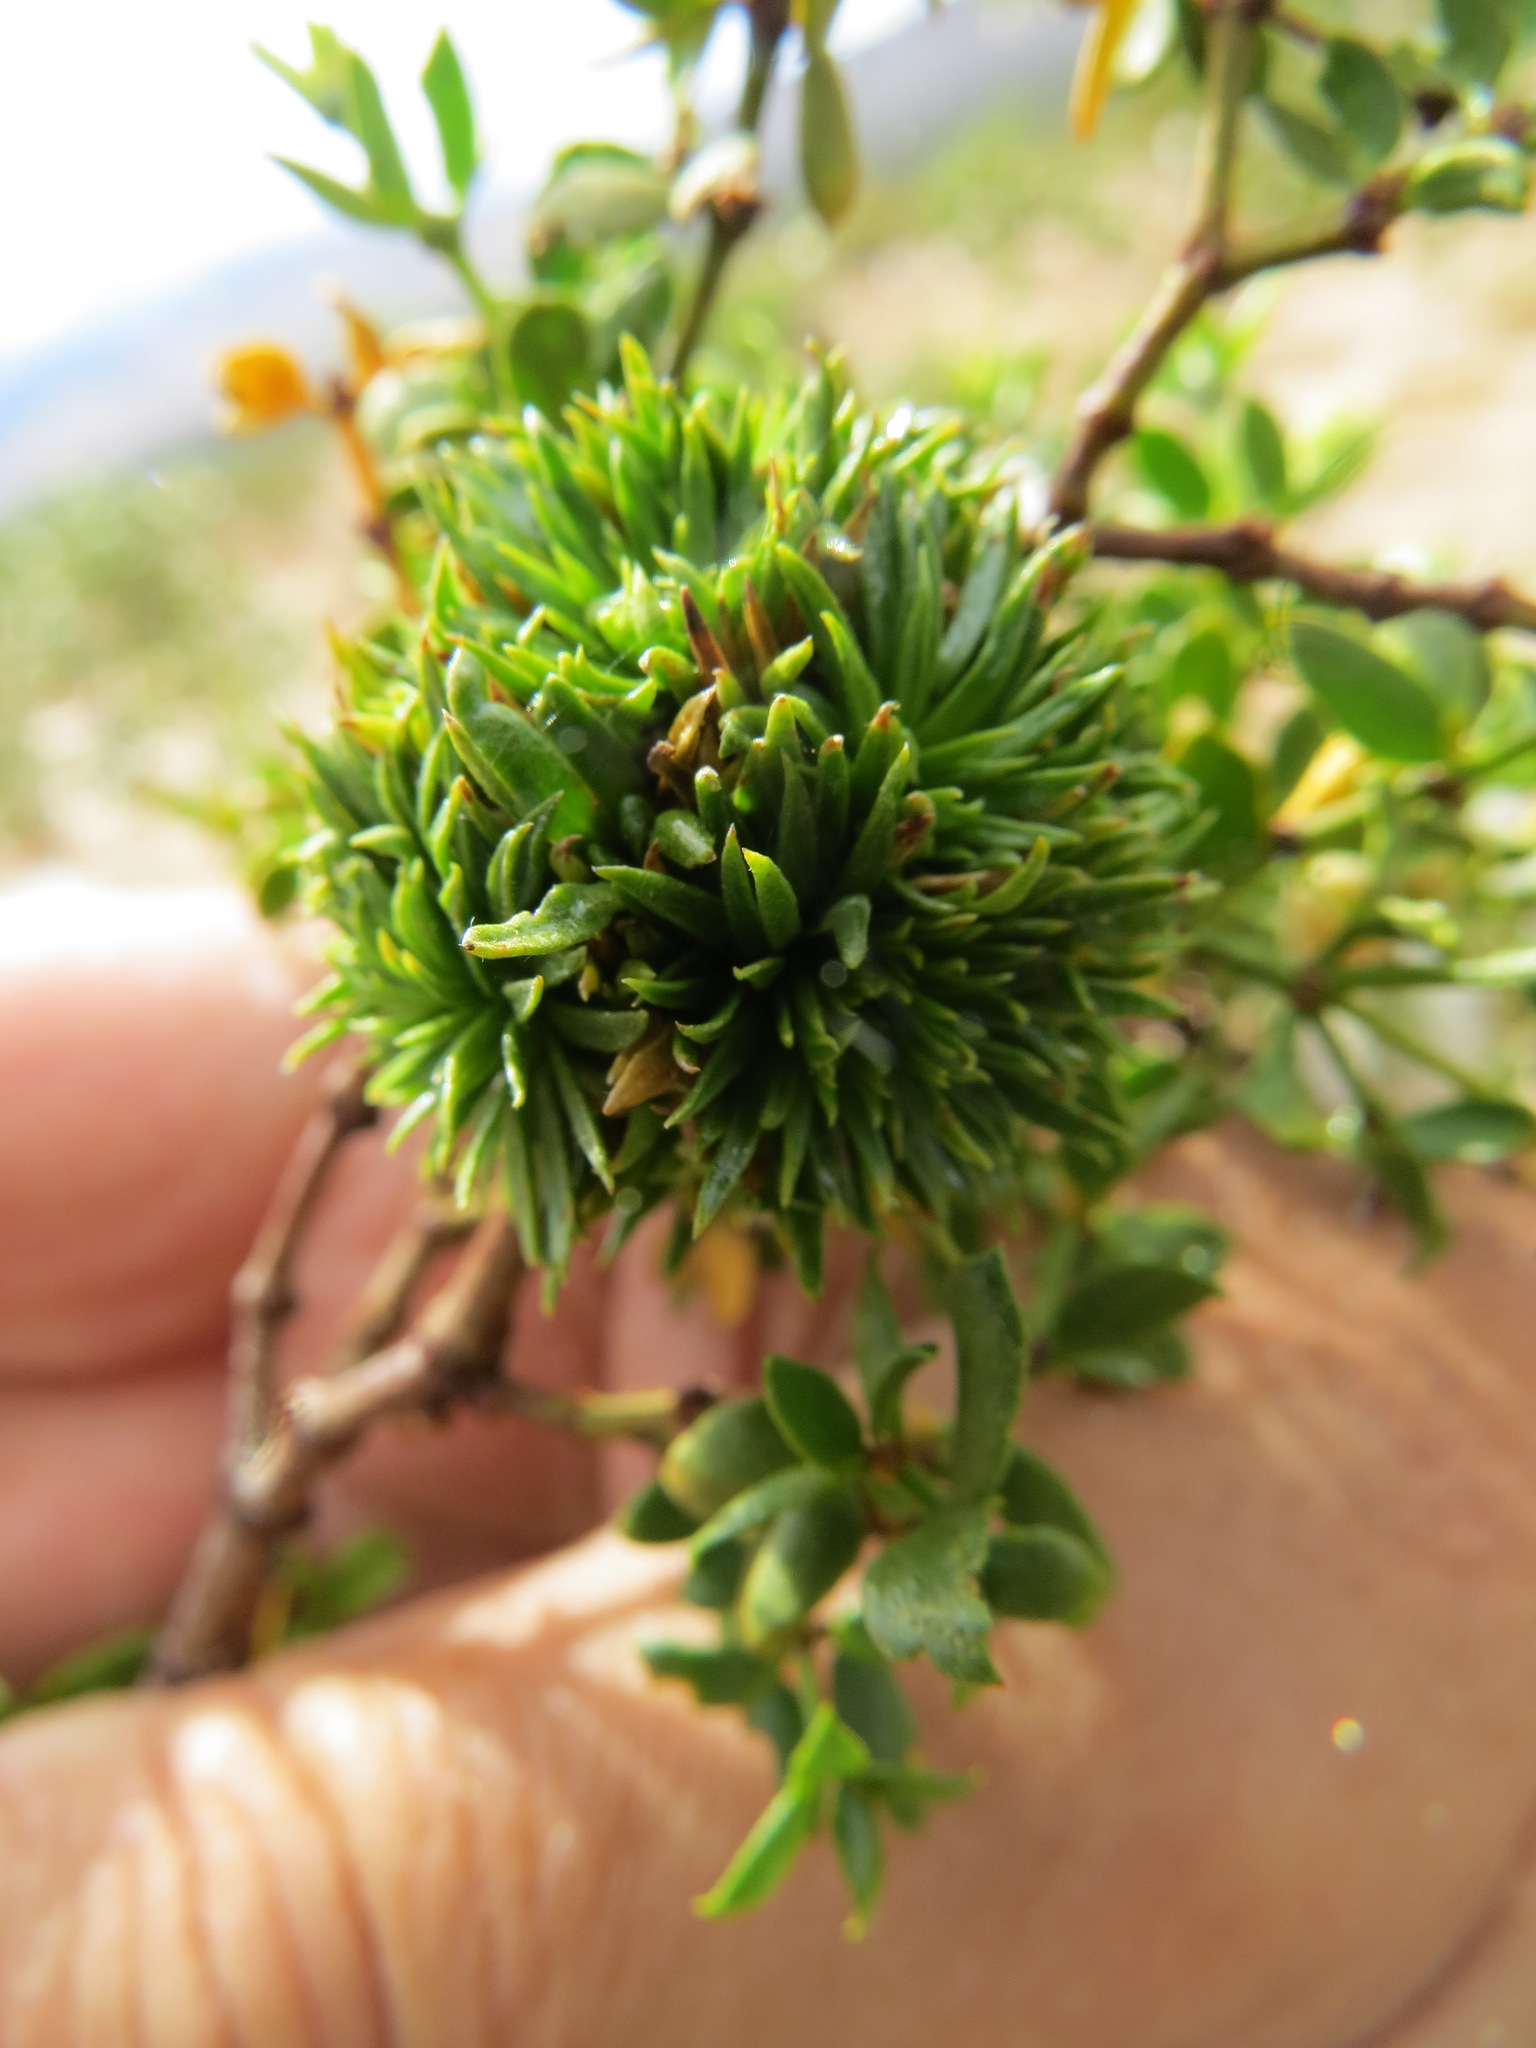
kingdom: Animalia
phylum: Arthropoda
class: Insecta
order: Diptera
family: Cecidomyiidae
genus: Asphondylia
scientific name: Asphondylia auripila
